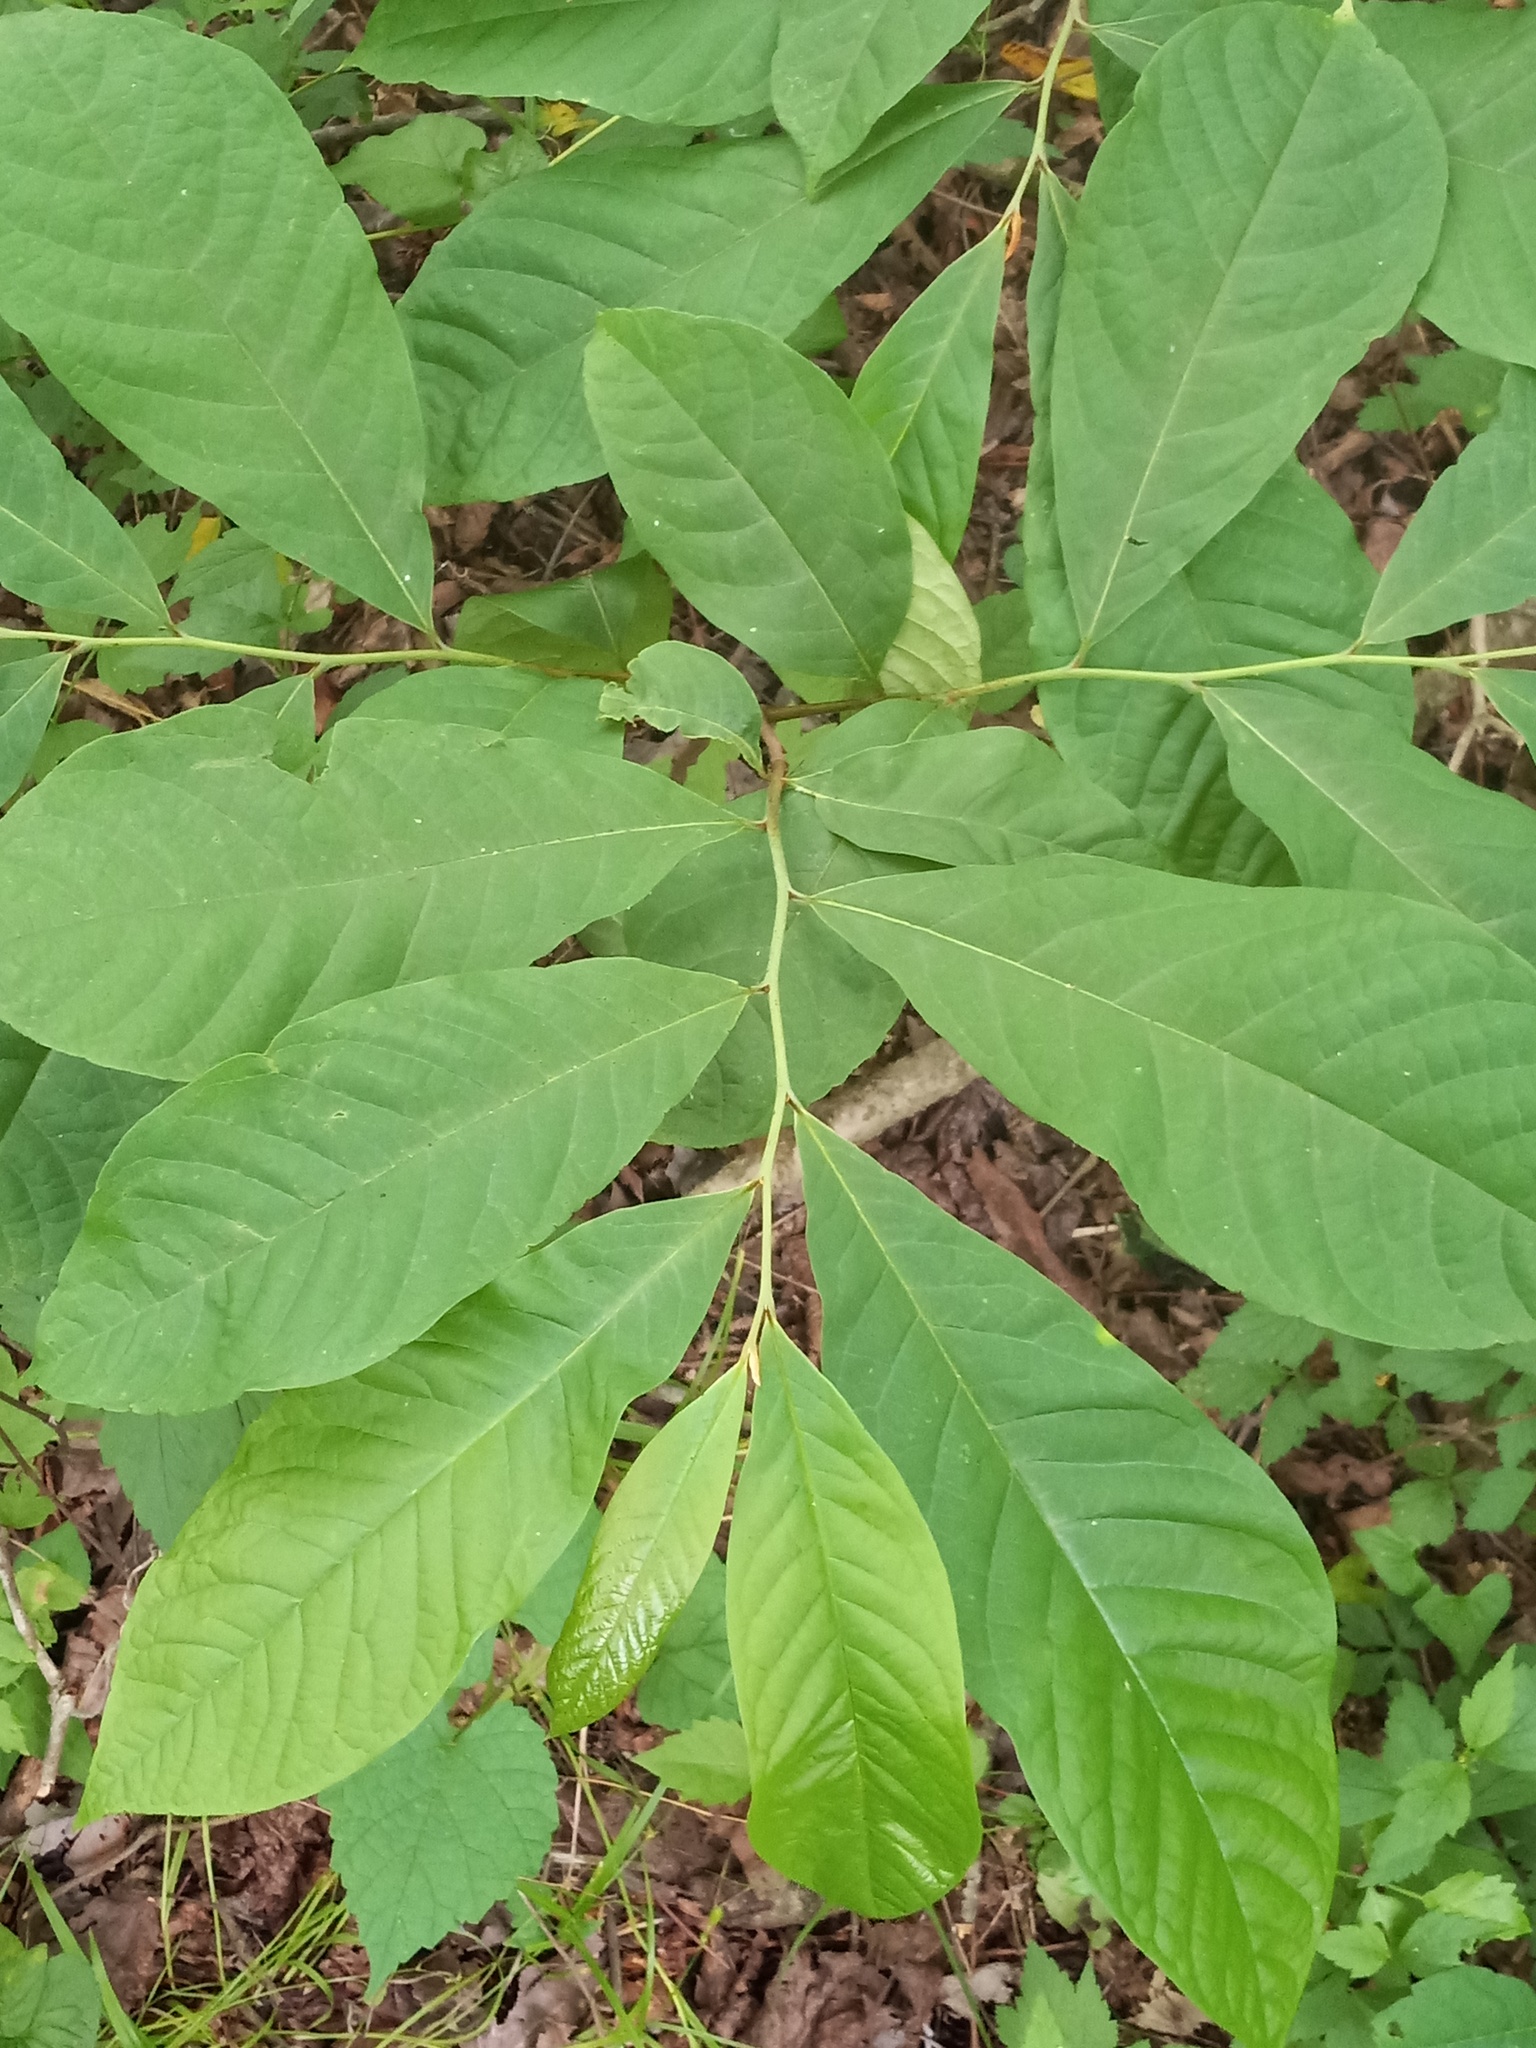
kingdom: Plantae
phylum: Tracheophyta
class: Magnoliopsida
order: Magnoliales
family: Annonaceae
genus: Asimina
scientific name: Asimina triloba
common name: Dog-banana
